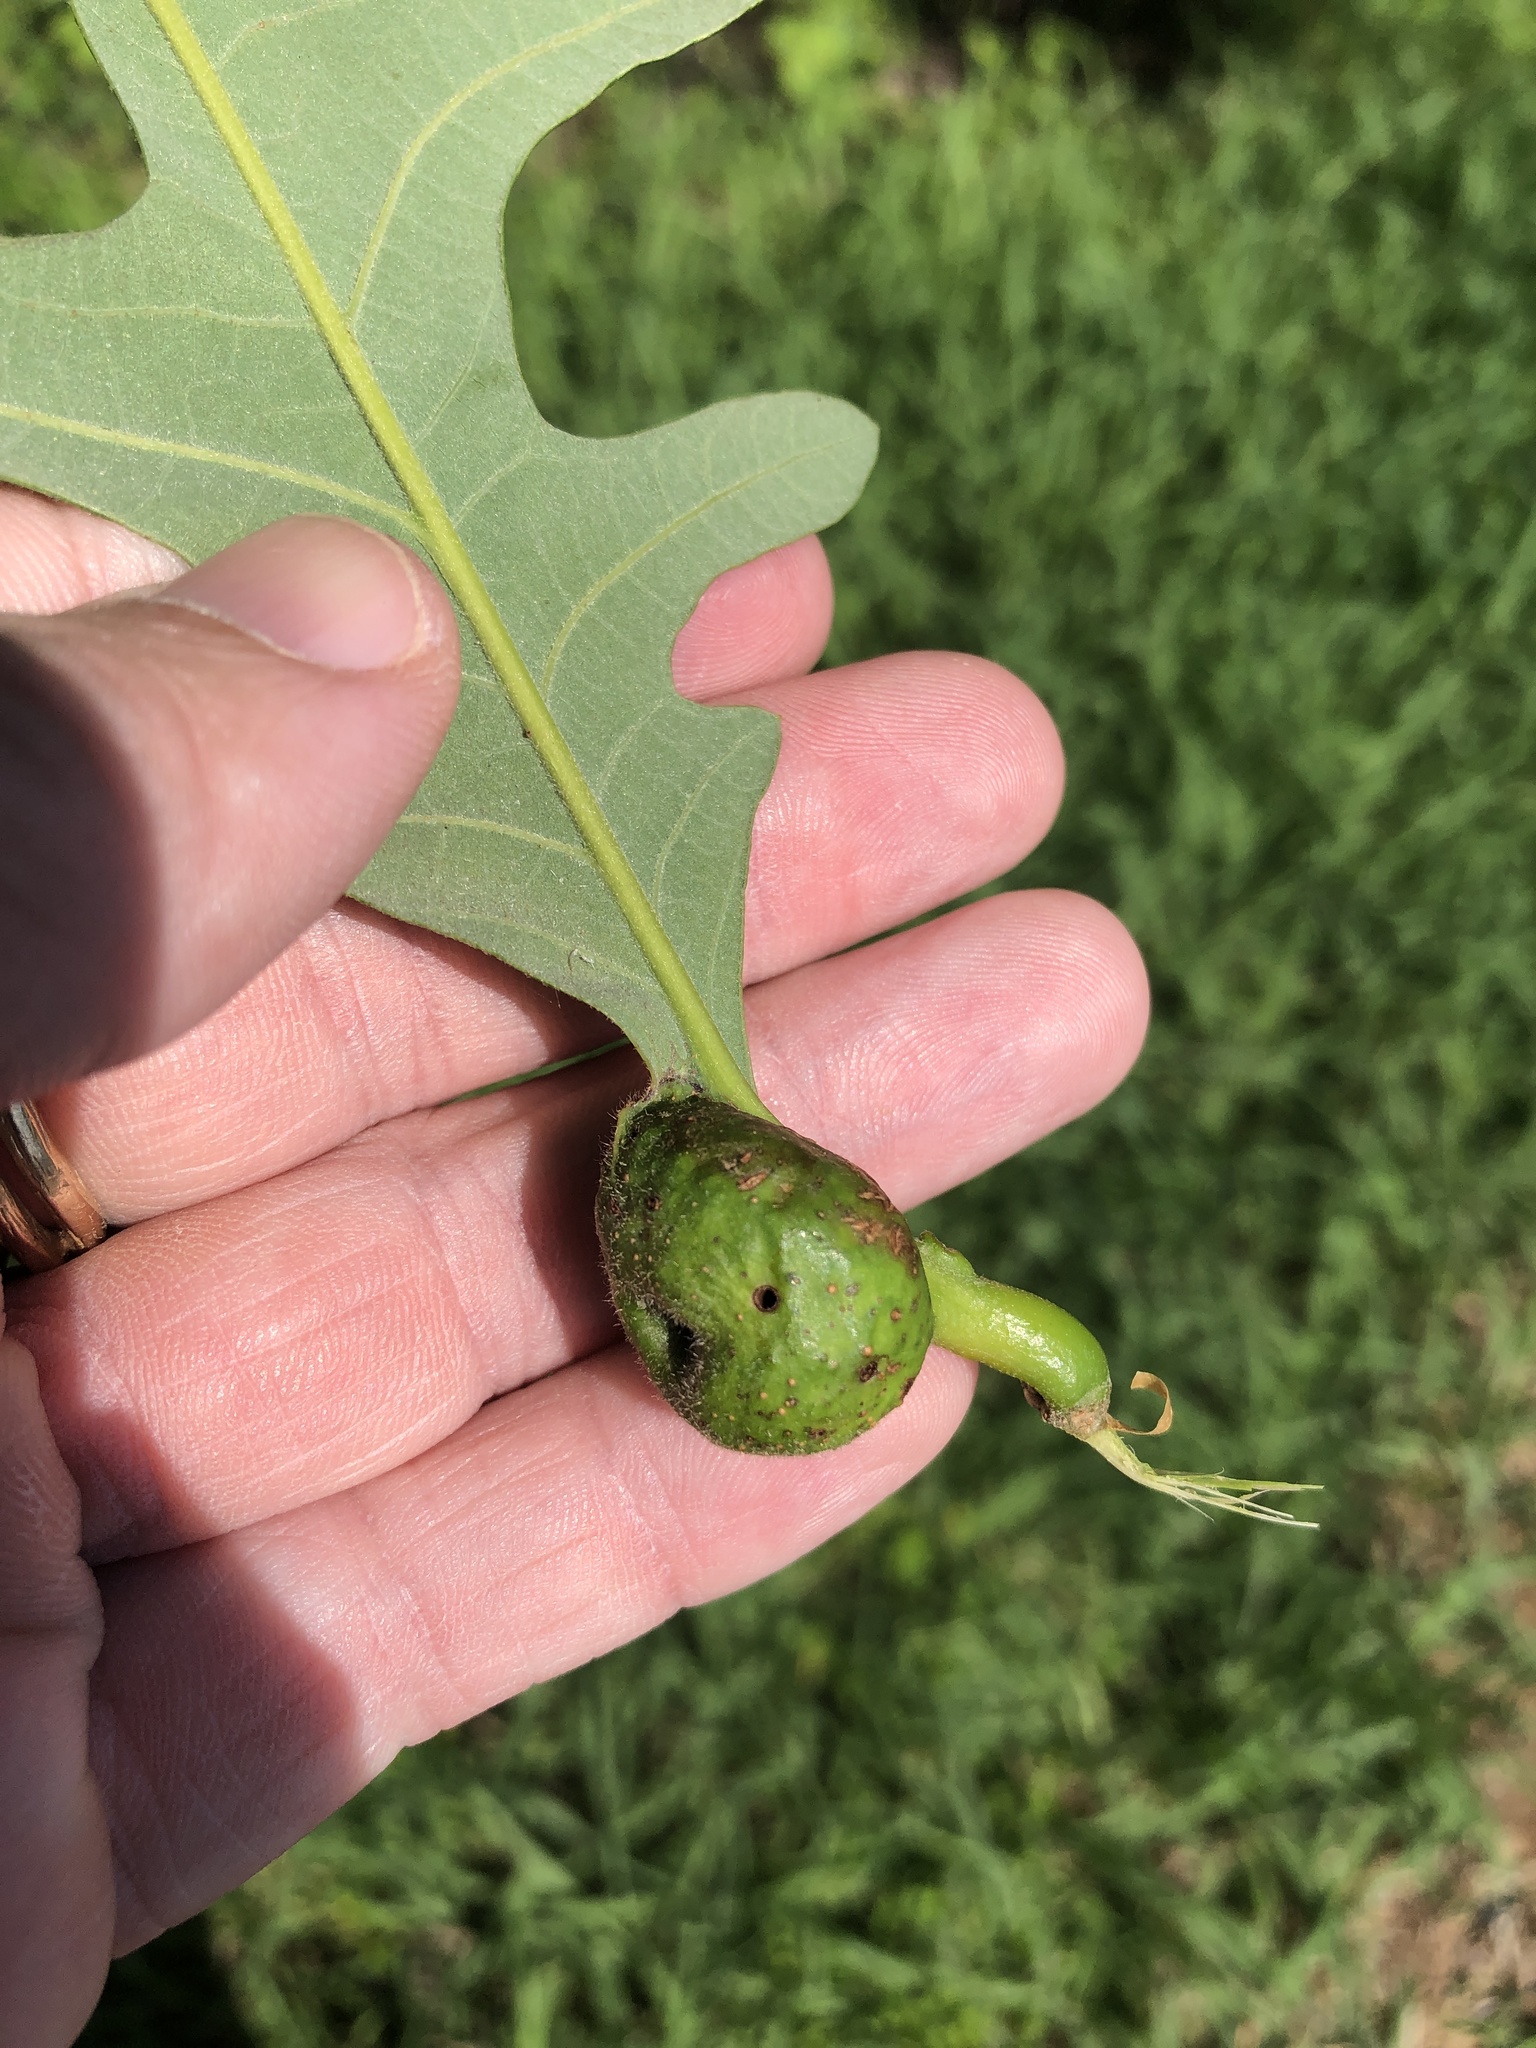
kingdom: Animalia
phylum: Arthropoda
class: Insecta
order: Hymenoptera
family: Cynipidae
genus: Andricus
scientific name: Andricus
